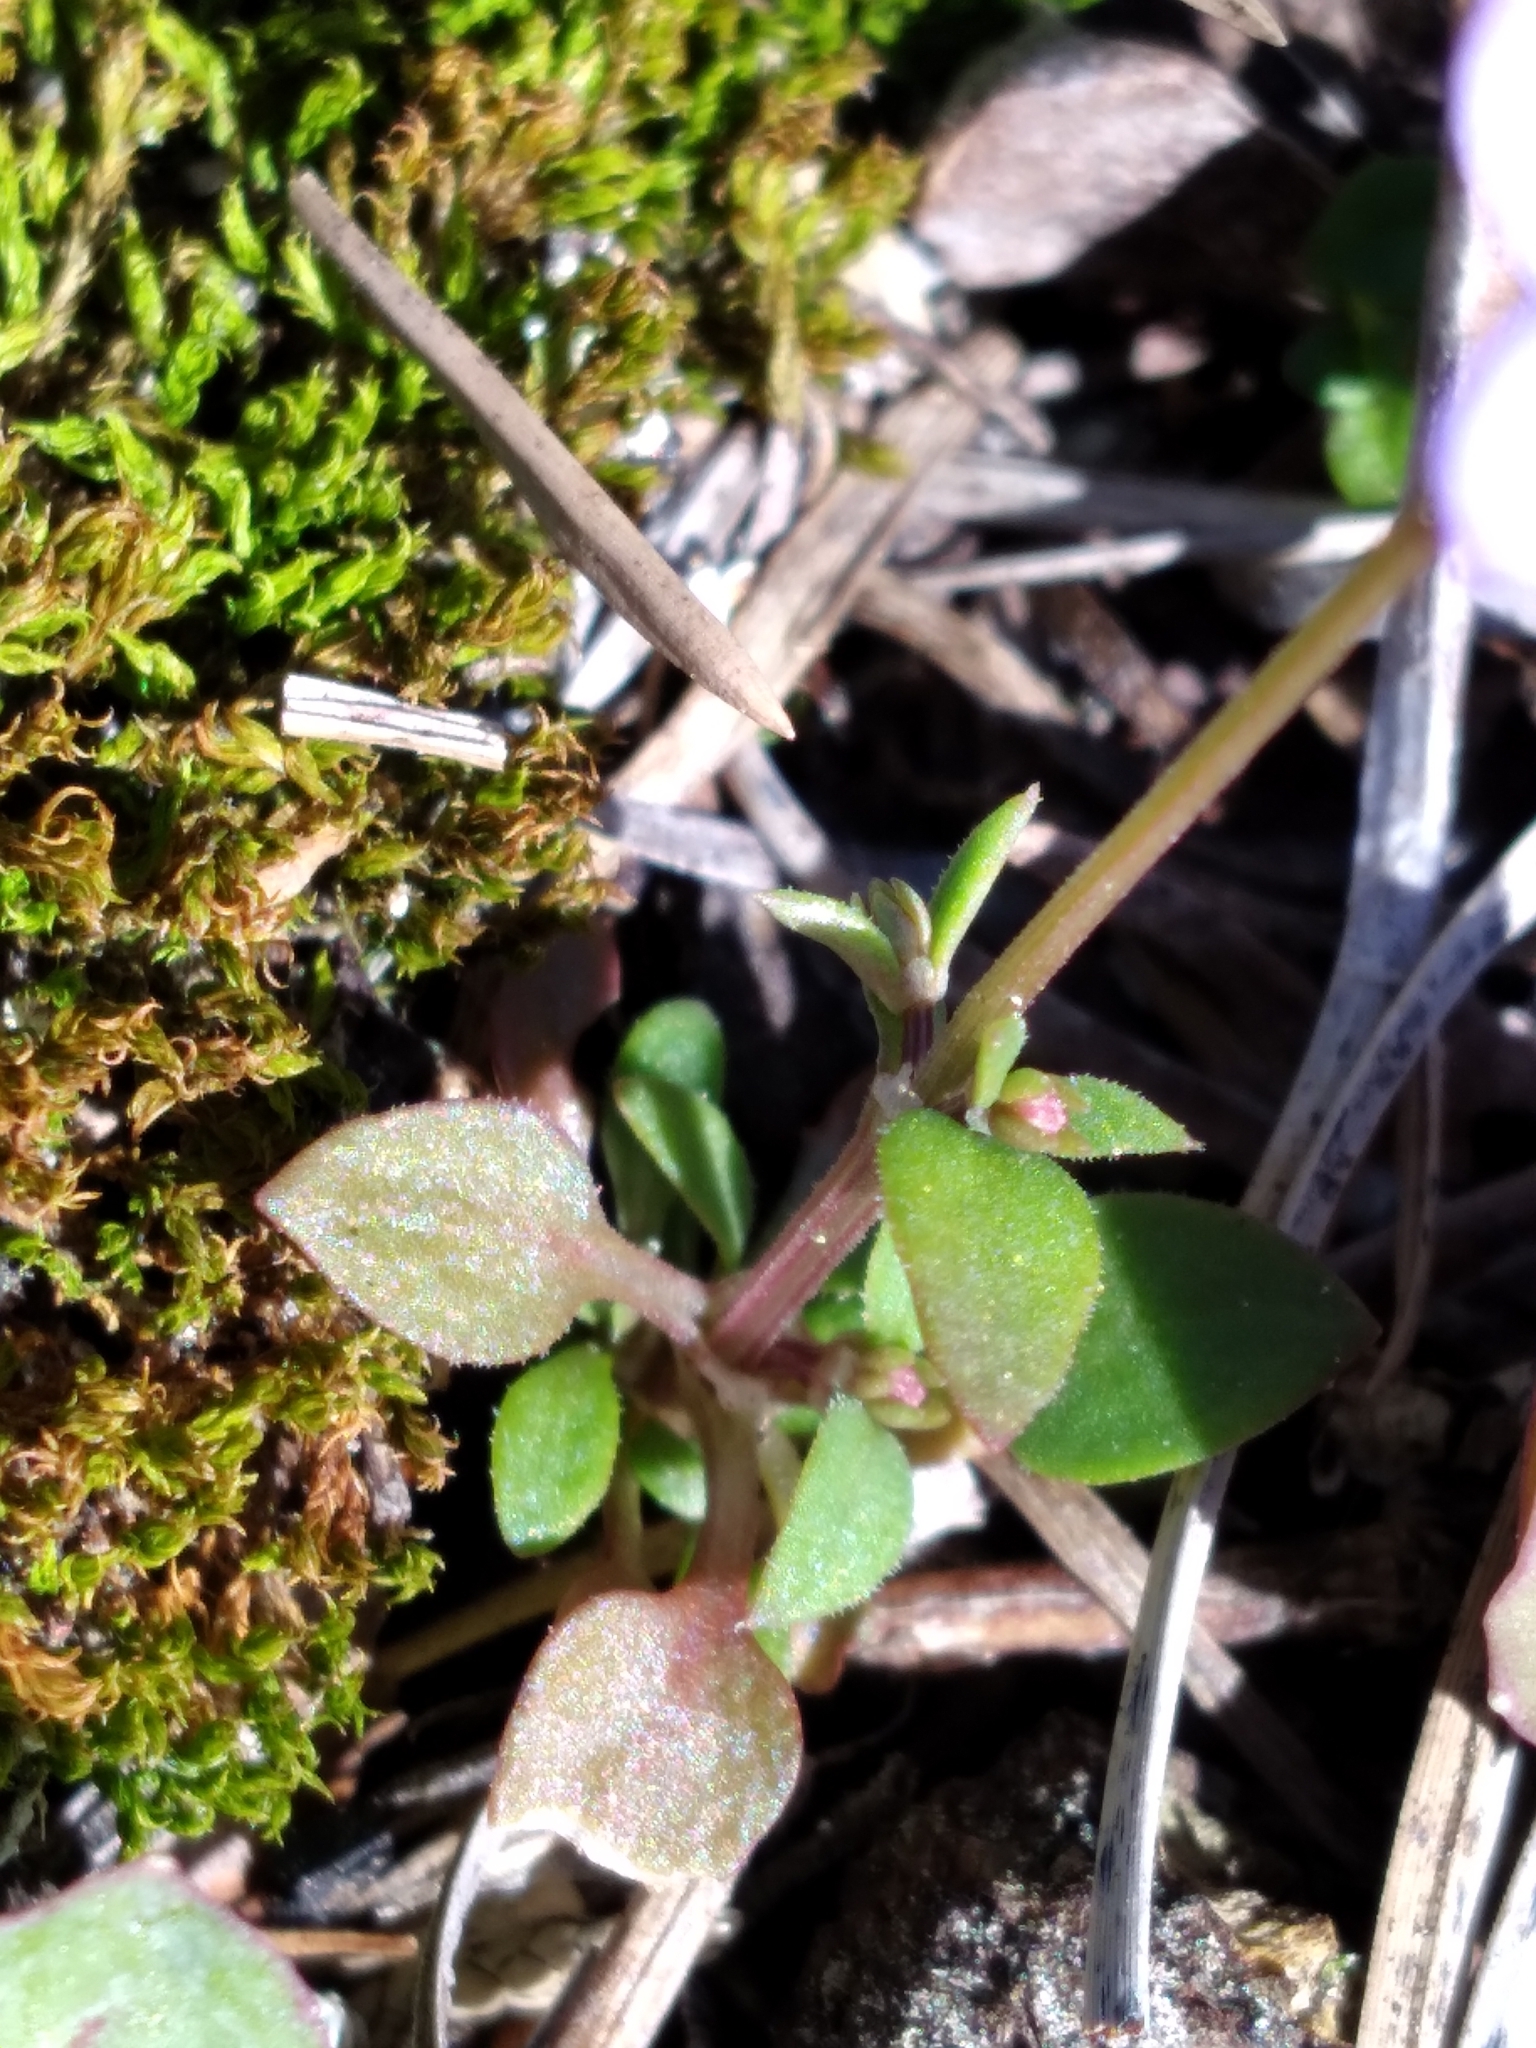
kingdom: Plantae
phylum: Tracheophyta
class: Magnoliopsida
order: Gentianales
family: Rubiaceae
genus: Houstonia
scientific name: Houstonia pusilla
